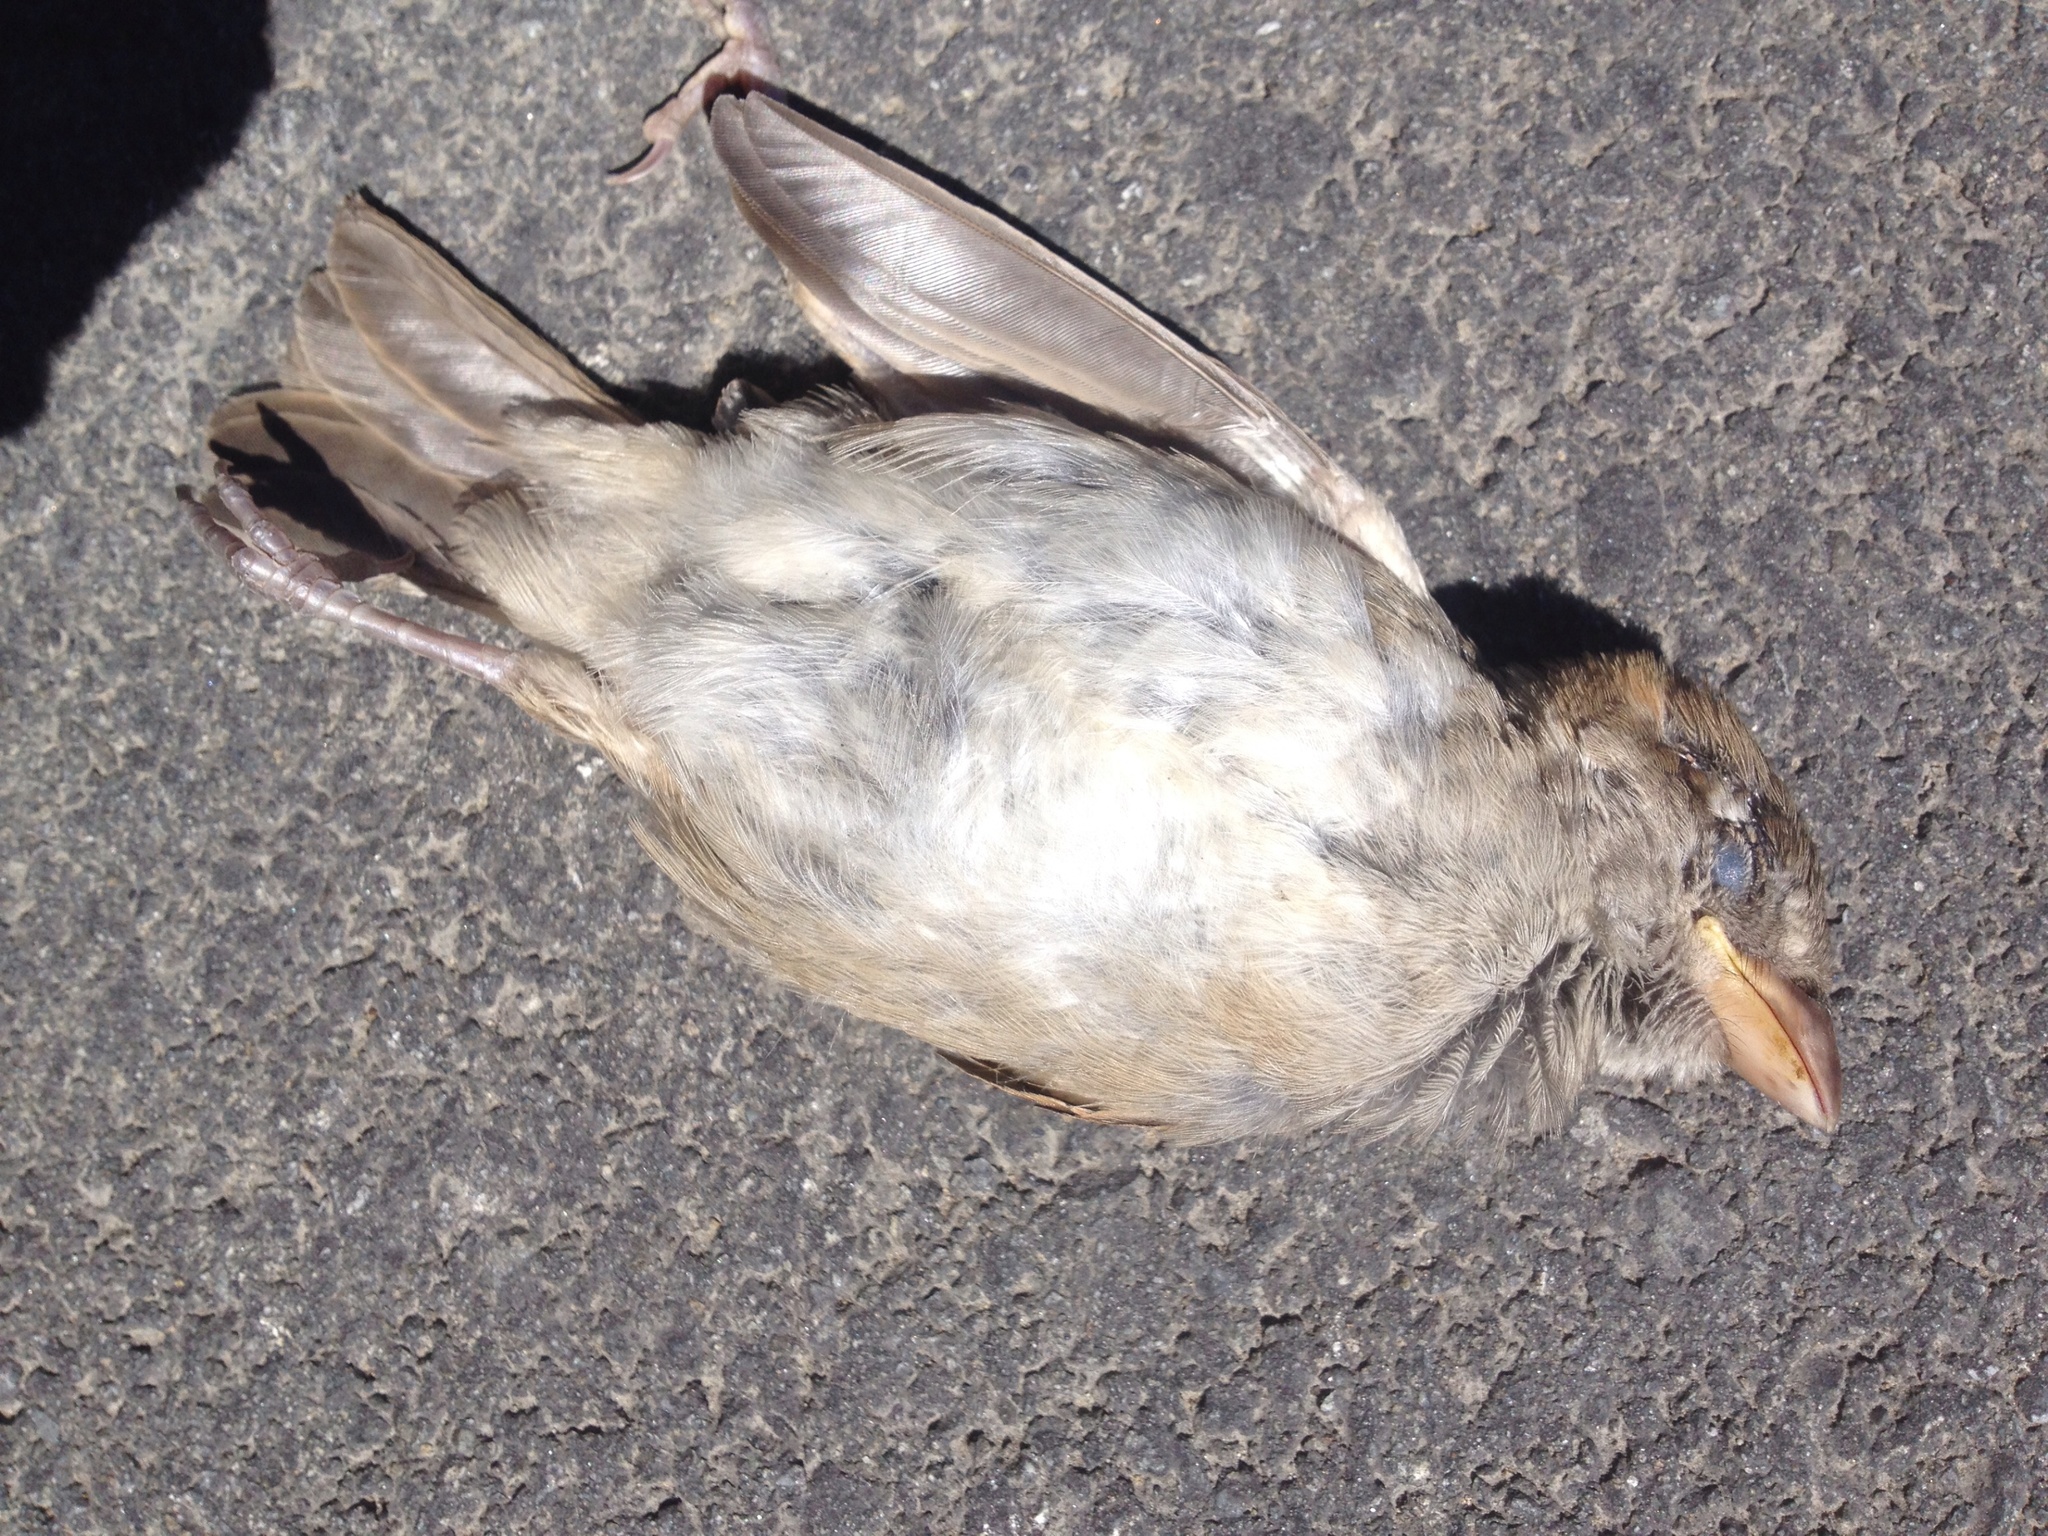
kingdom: Animalia
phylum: Chordata
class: Aves
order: Passeriformes
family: Passeridae
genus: Passer
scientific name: Passer domesticus
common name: House sparrow
